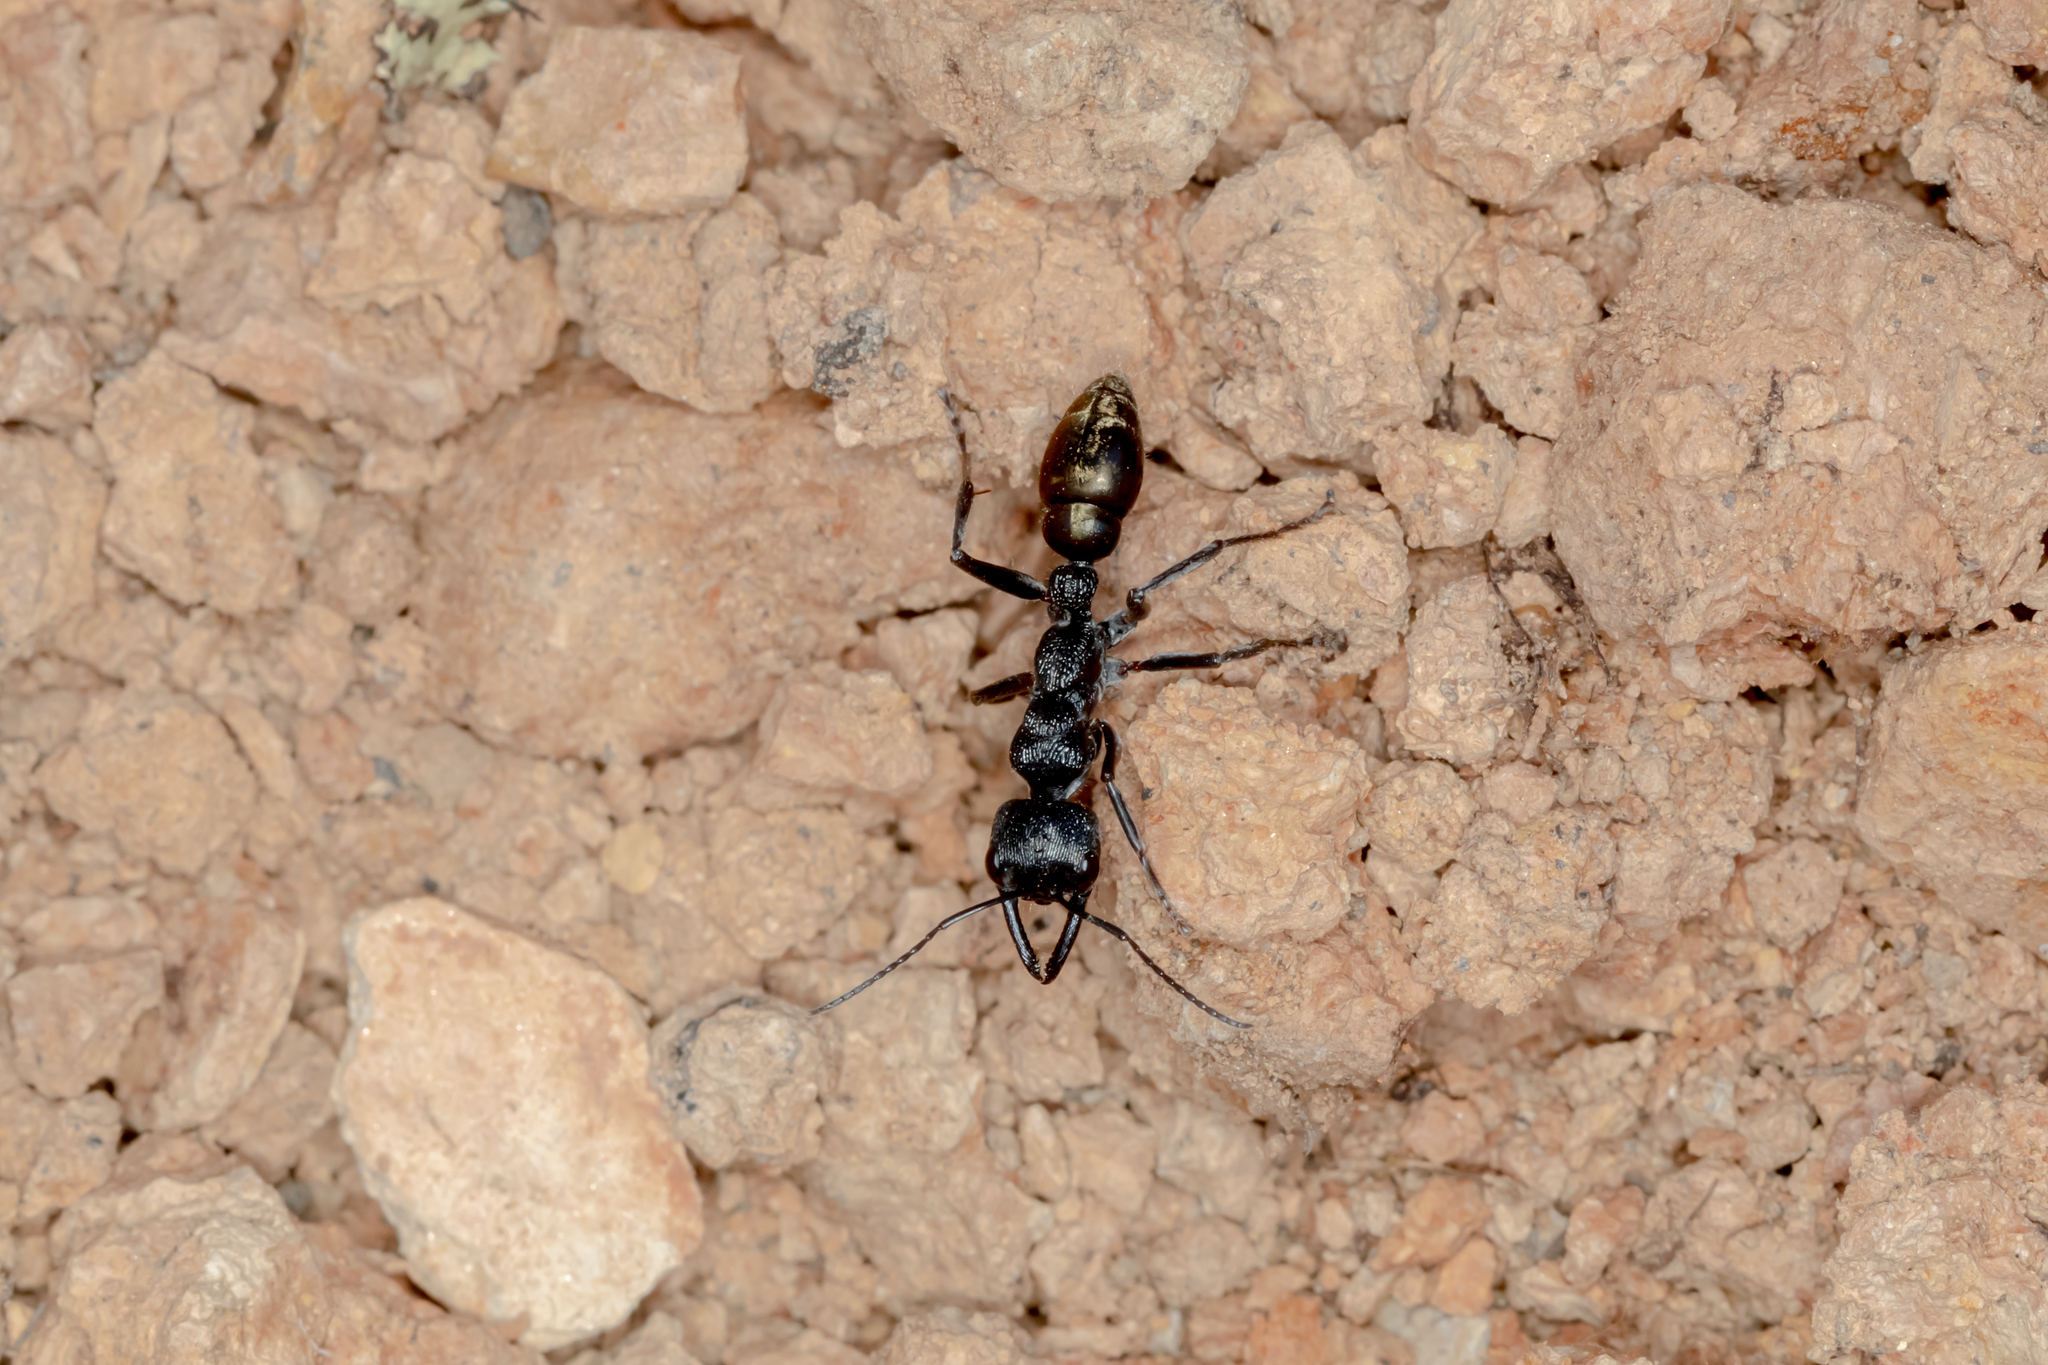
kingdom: Animalia
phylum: Arthropoda
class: Insecta
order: Hymenoptera
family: Formicidae
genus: Myrmecia
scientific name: Myrmecia piliventris
